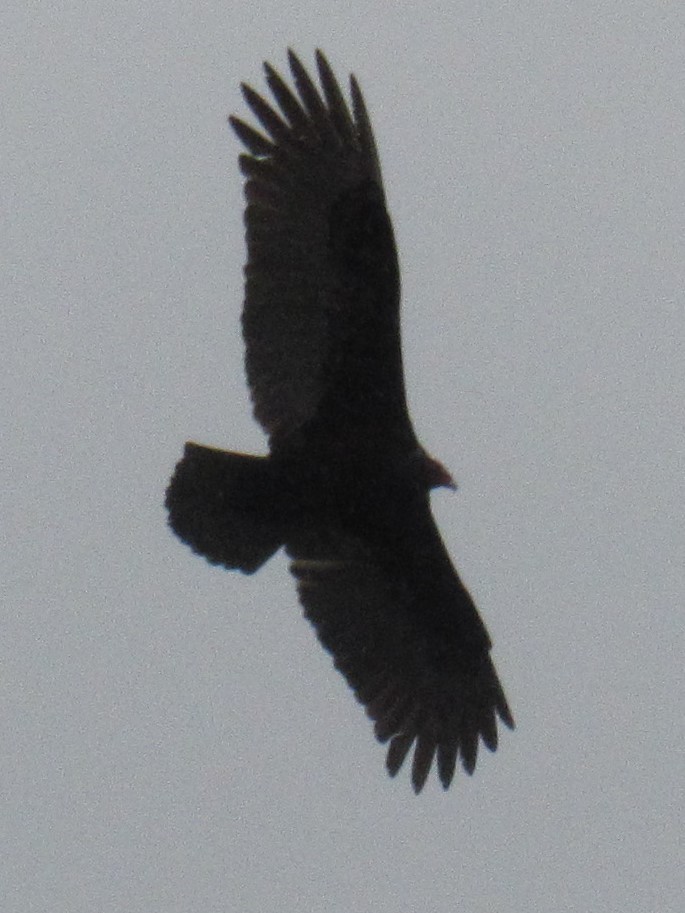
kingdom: Animalia
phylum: Chordata
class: Aves
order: Accipitriformes
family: Cathartidae
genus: Cathartes
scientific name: Cathartes aura
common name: Turkey vulture
